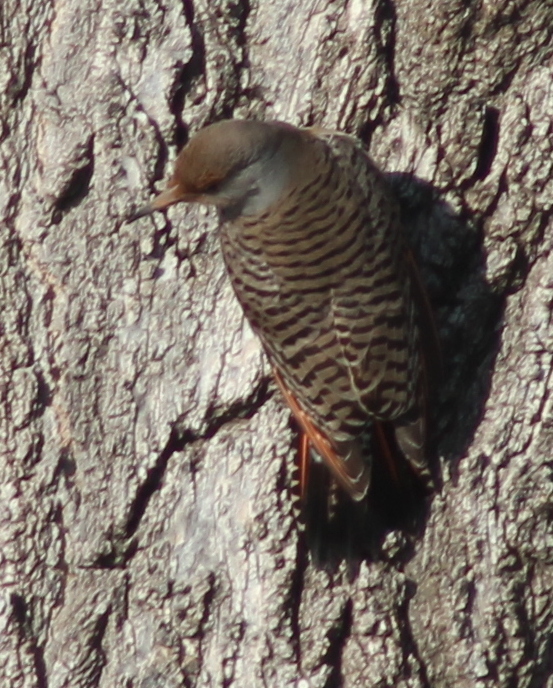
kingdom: Animalia
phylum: Chordata
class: Aves
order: Piciformes
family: Picidae
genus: Colaptes
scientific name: Colaptes auratus
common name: Northern flicker
